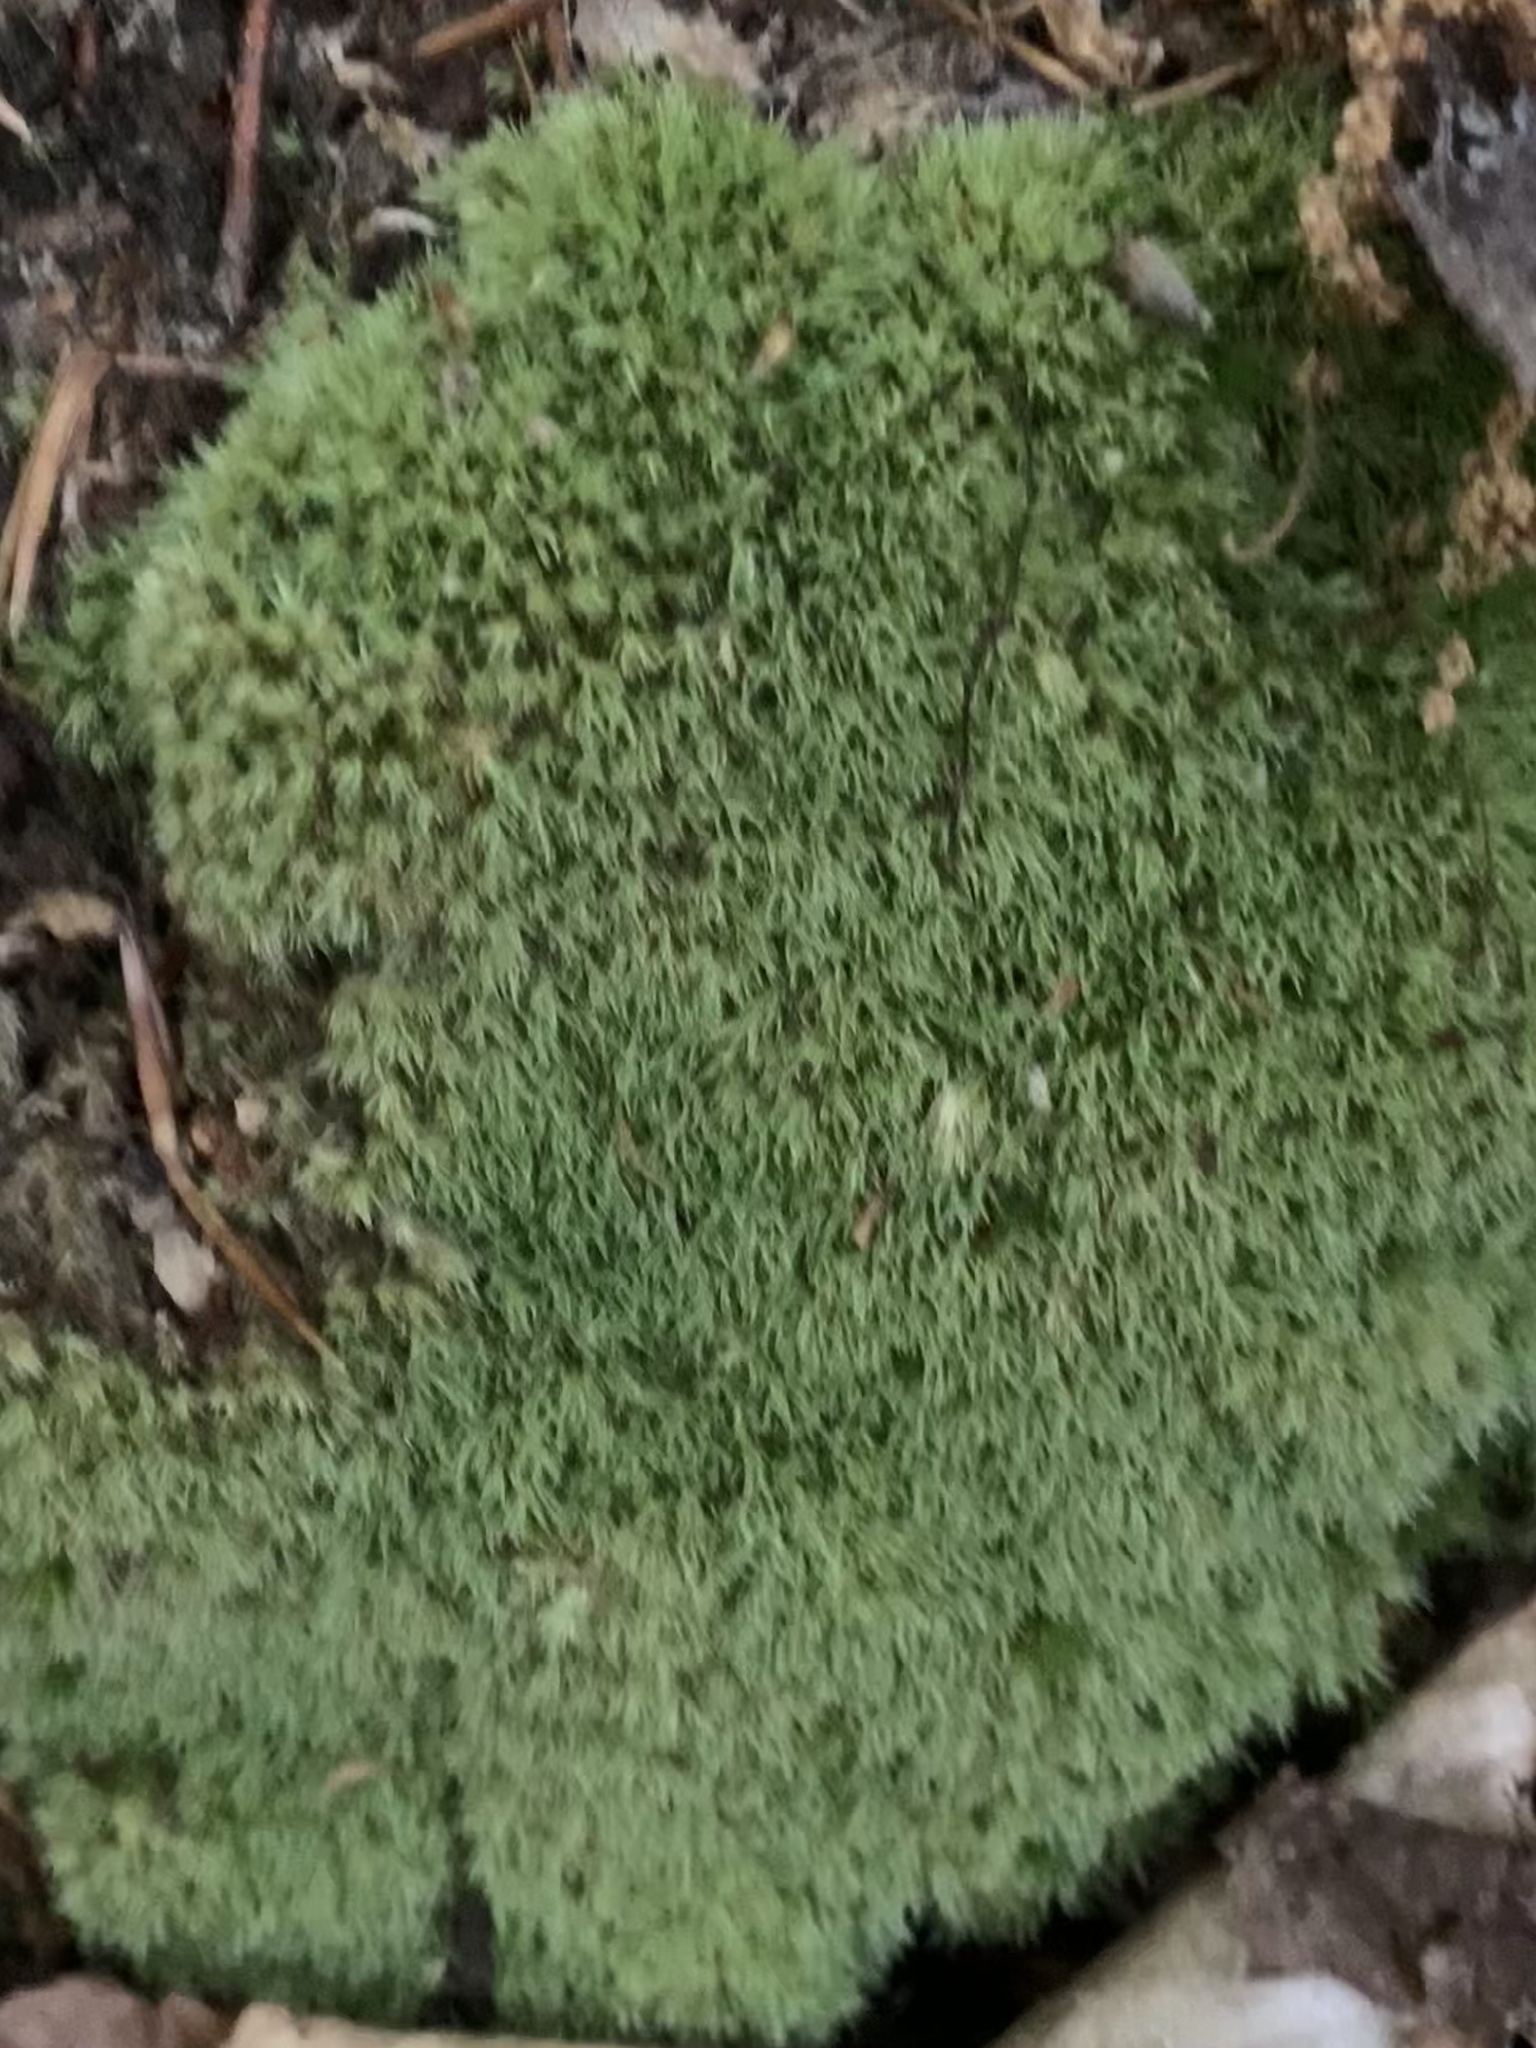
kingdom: Plantae
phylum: Bryophyta
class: Bryopsida
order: Dicranales
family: Leucobryaceae
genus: Leucobryum
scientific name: Leucobryum glaucum
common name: Large white-moss
